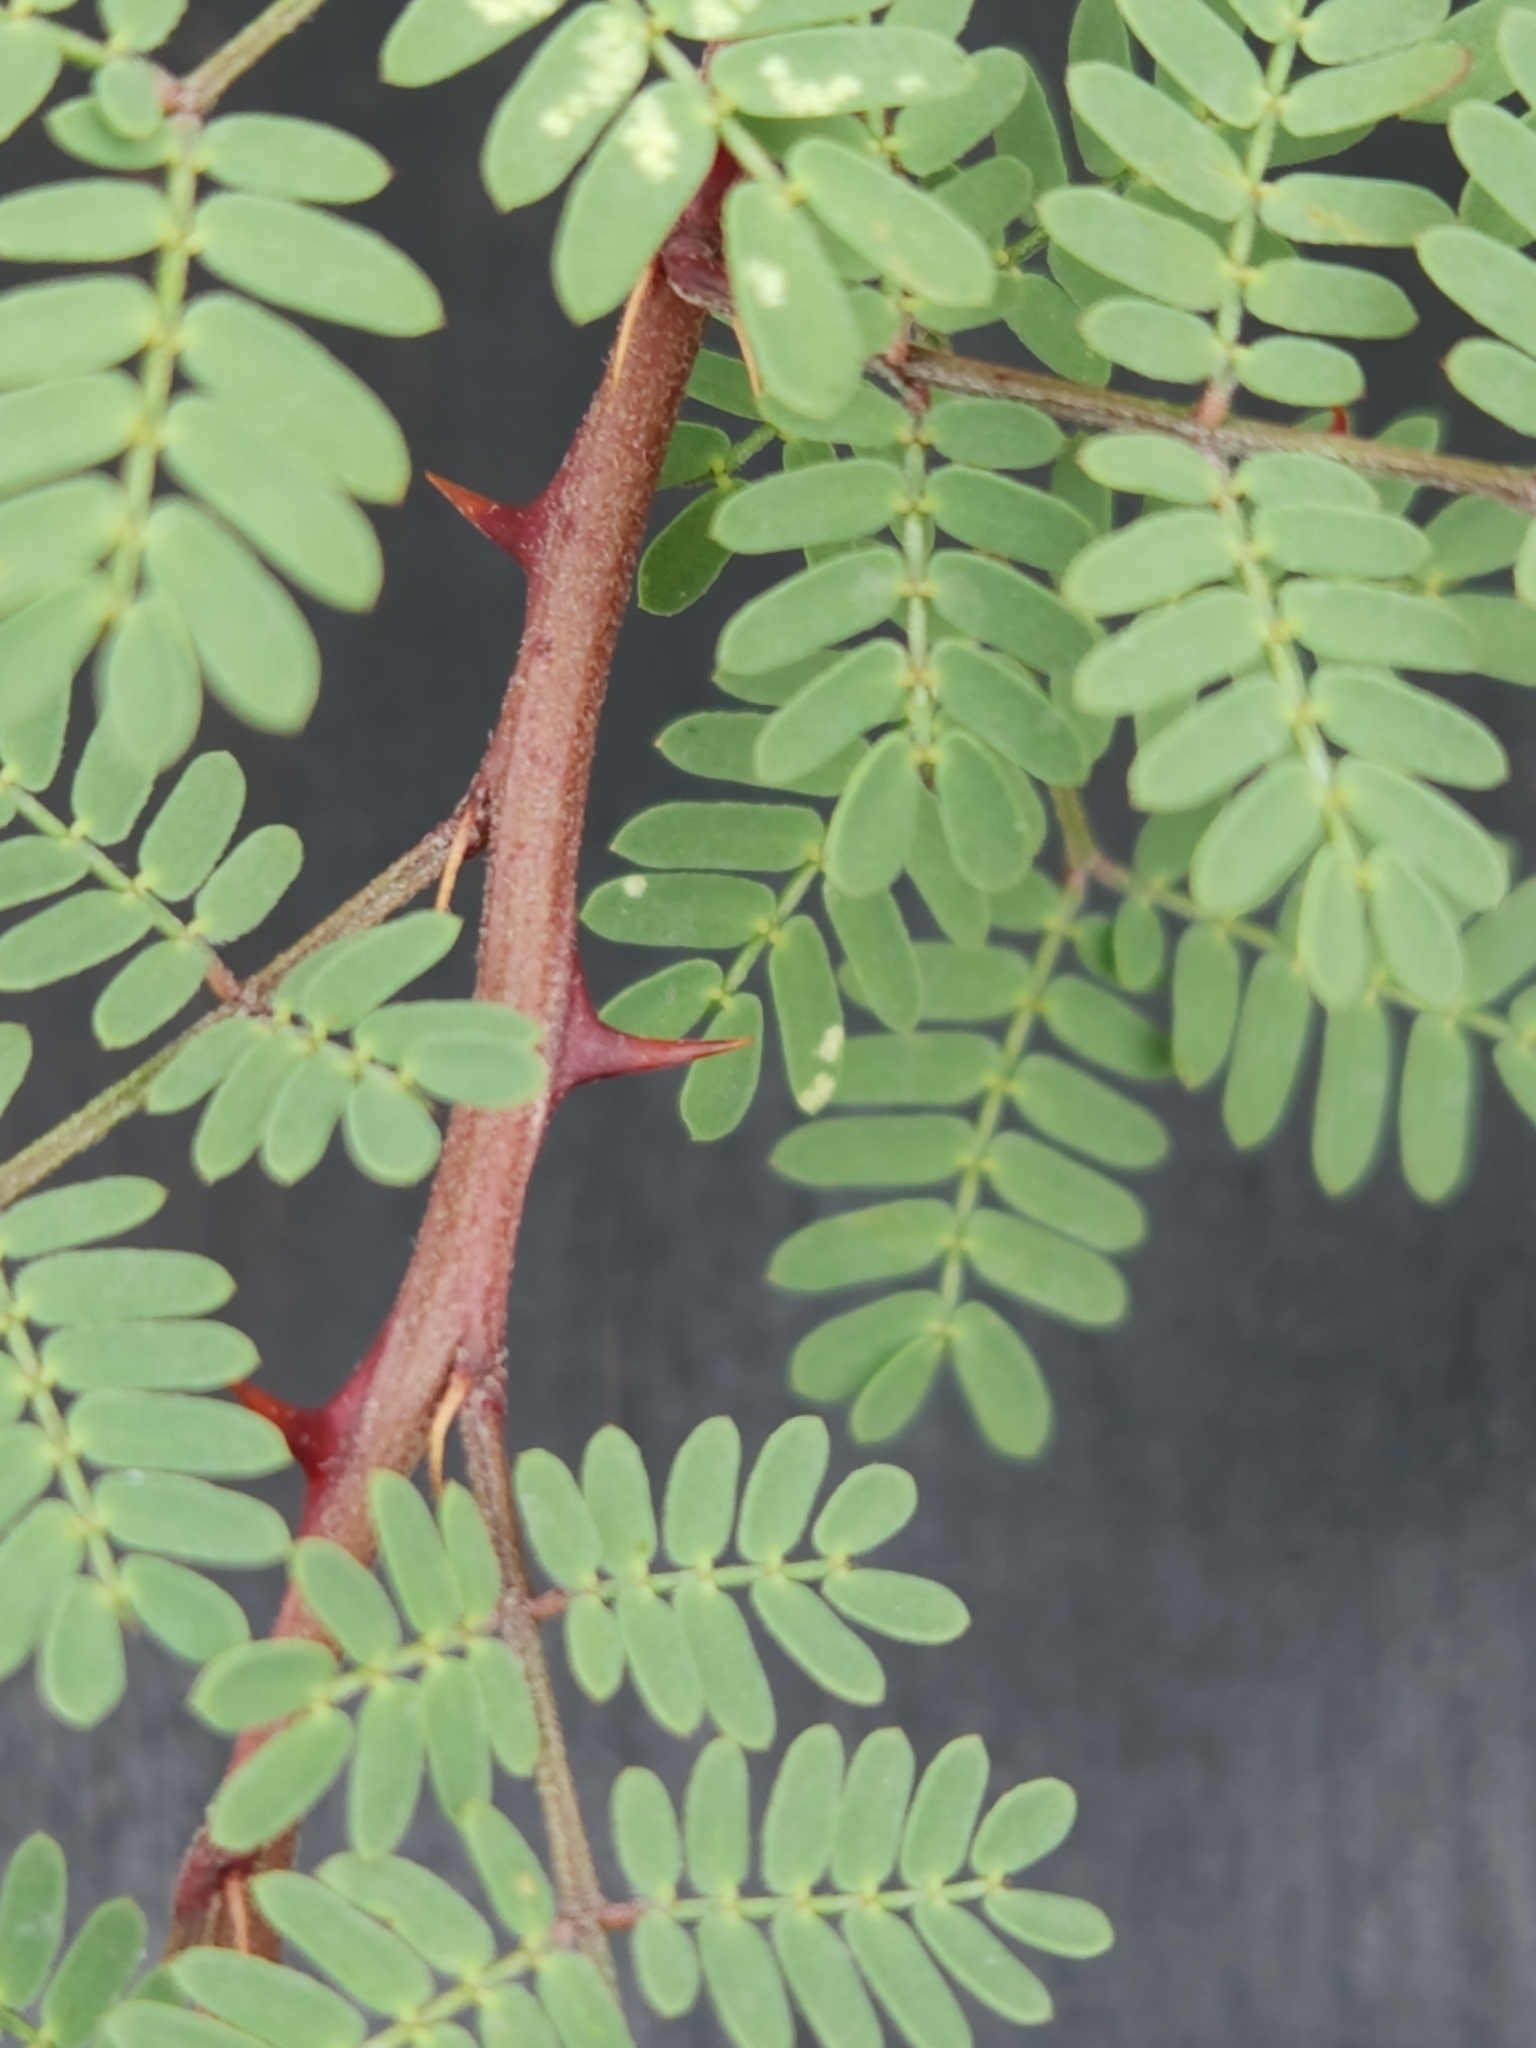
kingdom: Plantae
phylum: Tracheophyta
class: Magnoliopsida
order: Fabales
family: Fabaceae
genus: Mimosa
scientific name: Mimosa texana
